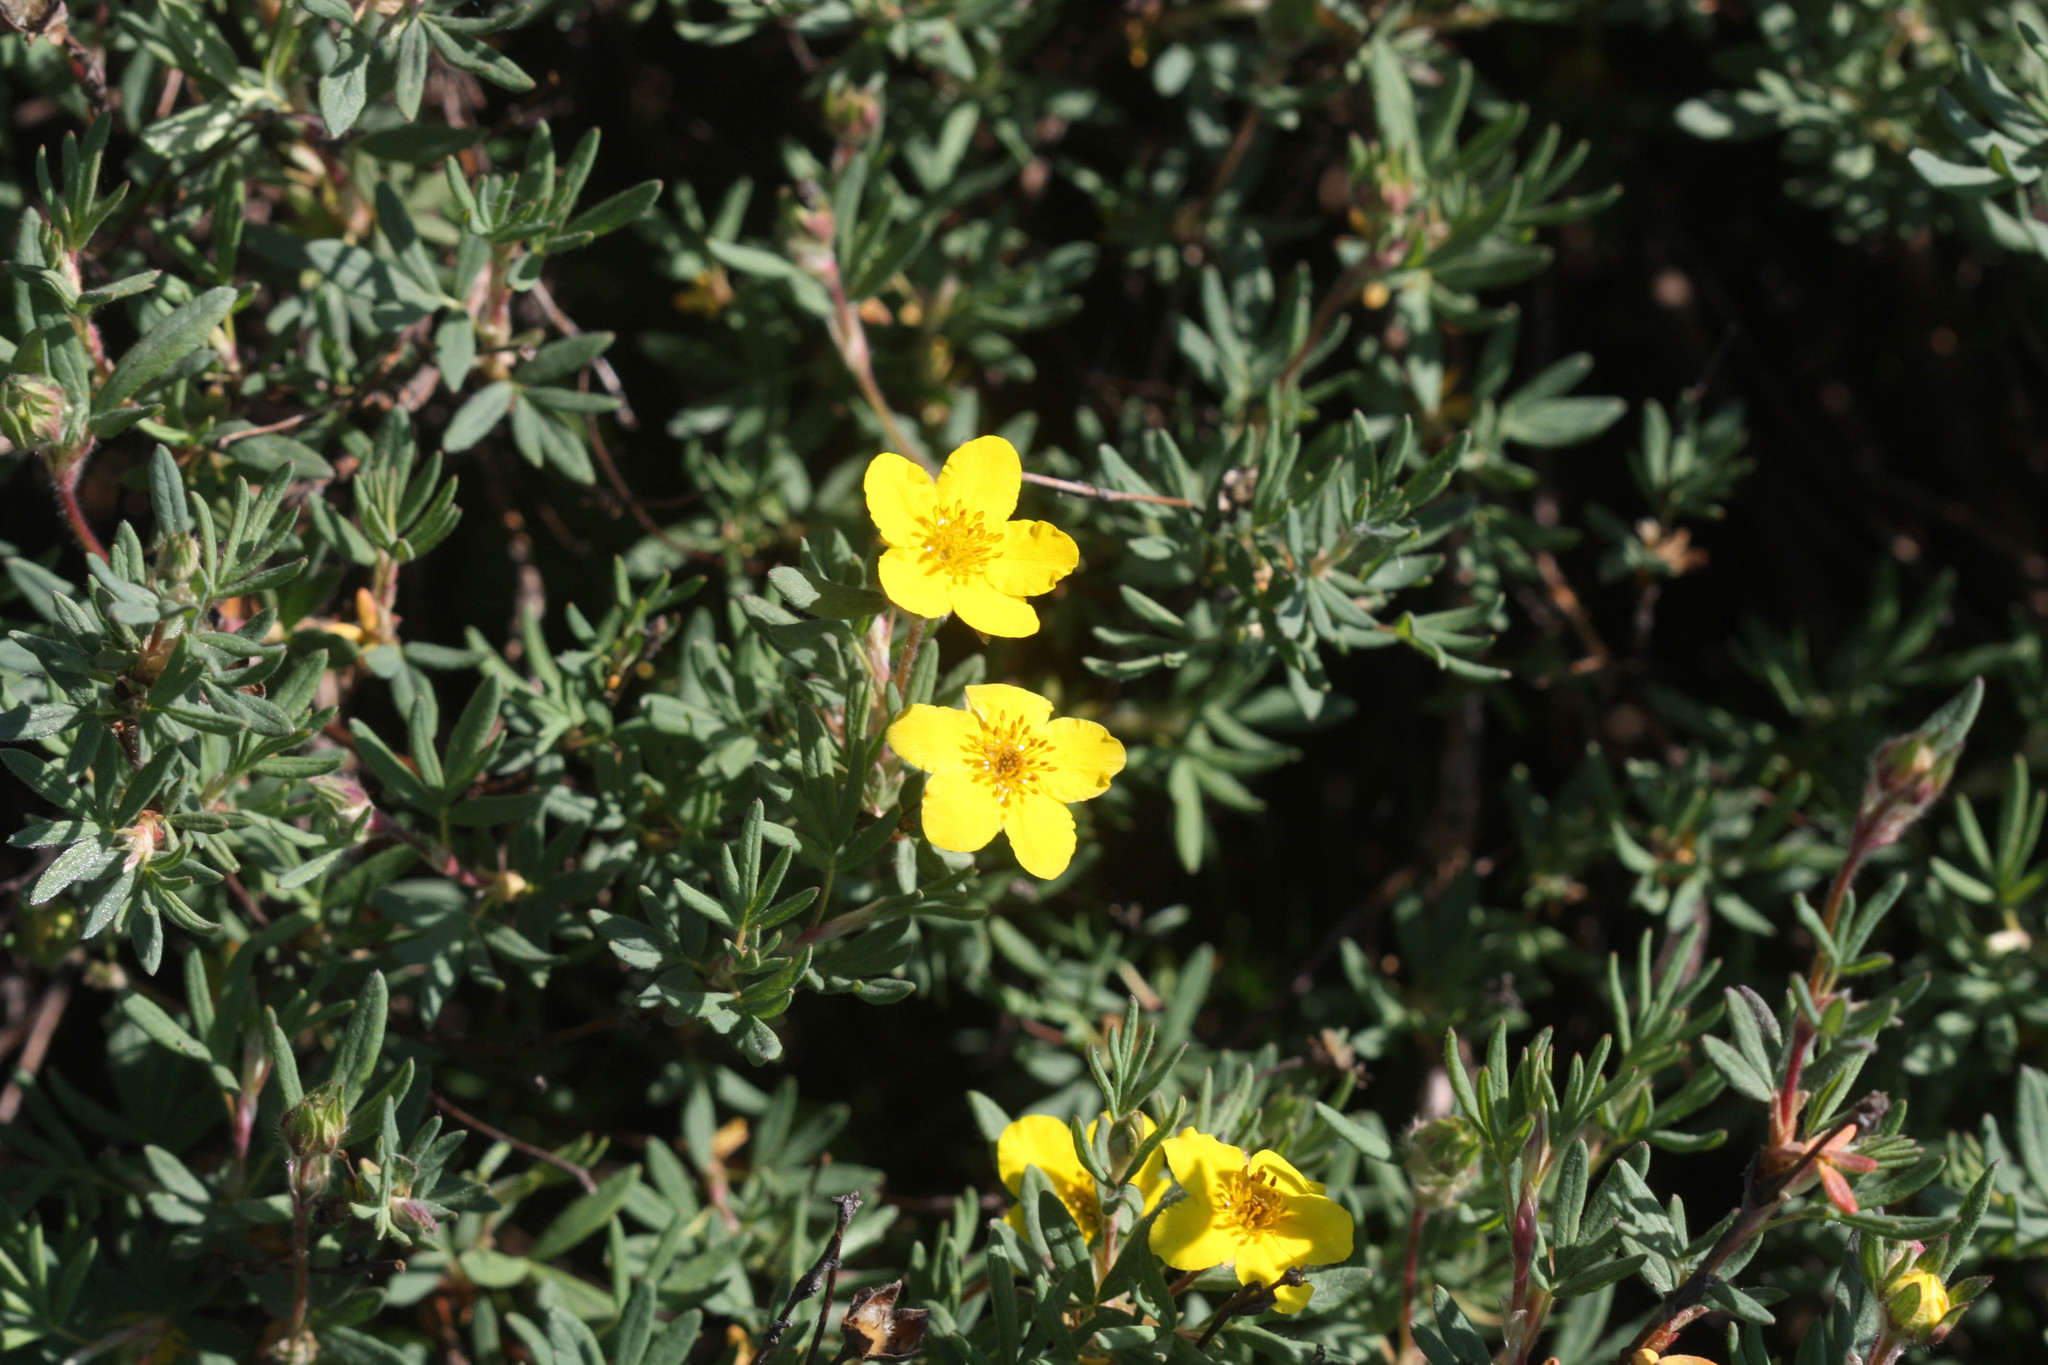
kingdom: Plantae
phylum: Tracheophyta
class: Magnoliopsida
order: Rosales
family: Rosaceae
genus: Dasiphora
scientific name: Dasiphora fruticosa
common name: Shrubby cinquefoil
